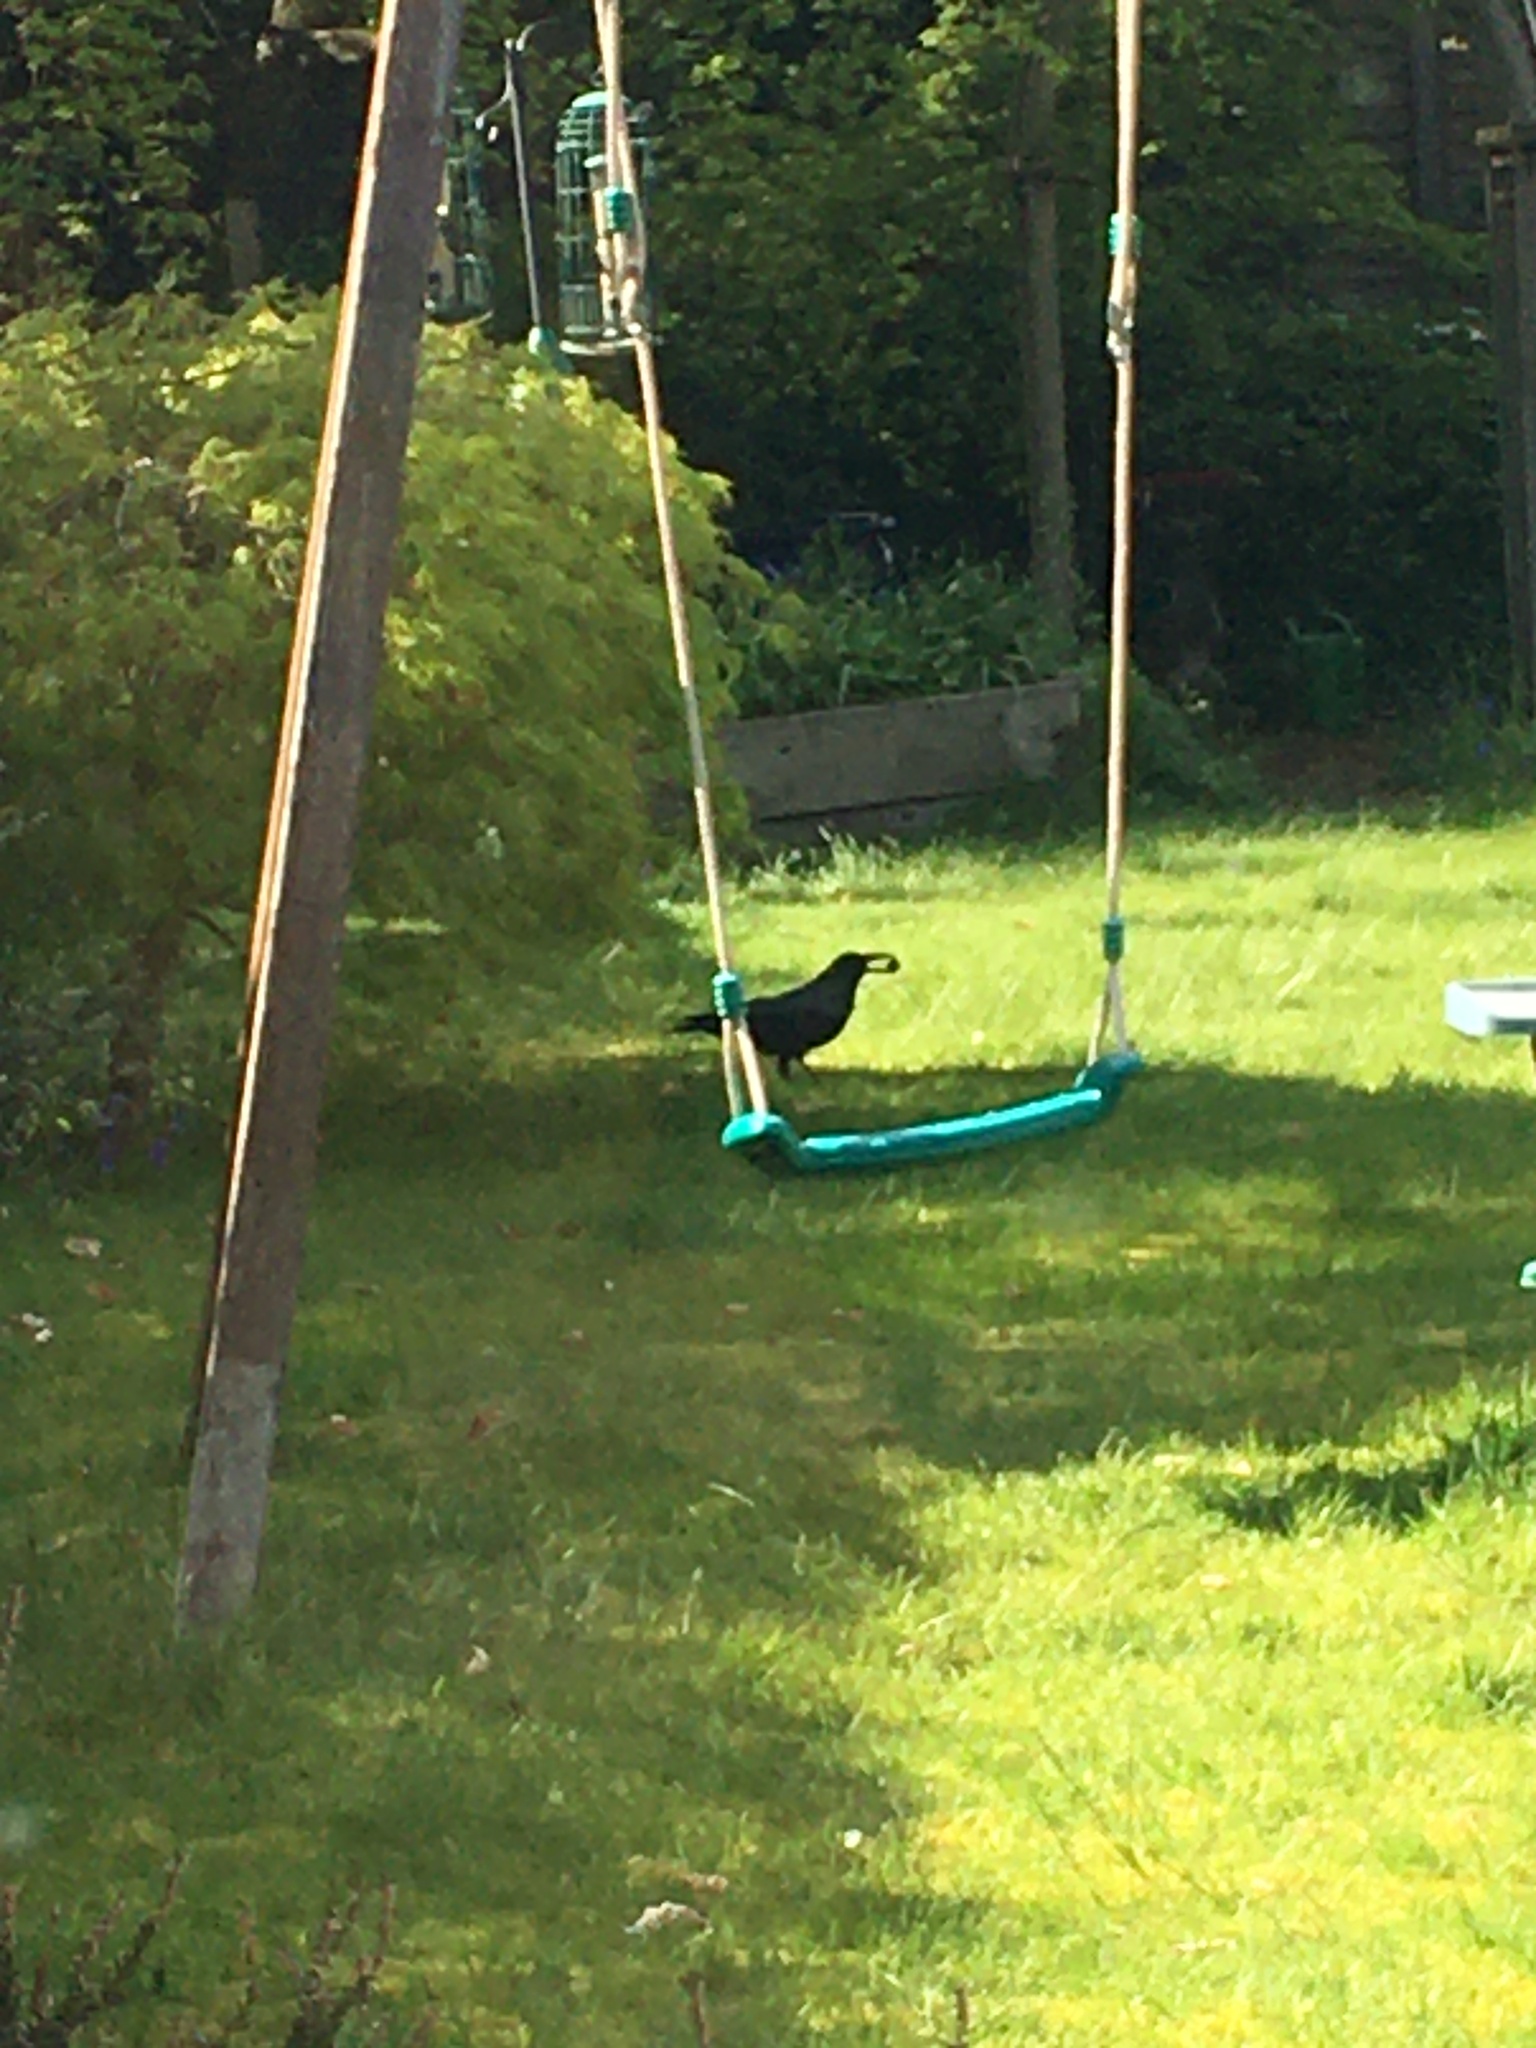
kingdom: Animalia
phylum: Chordata
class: Aves
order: Passeriformes
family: Corvidae
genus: Corvus
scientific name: Corvus corone
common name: Carrion crow
